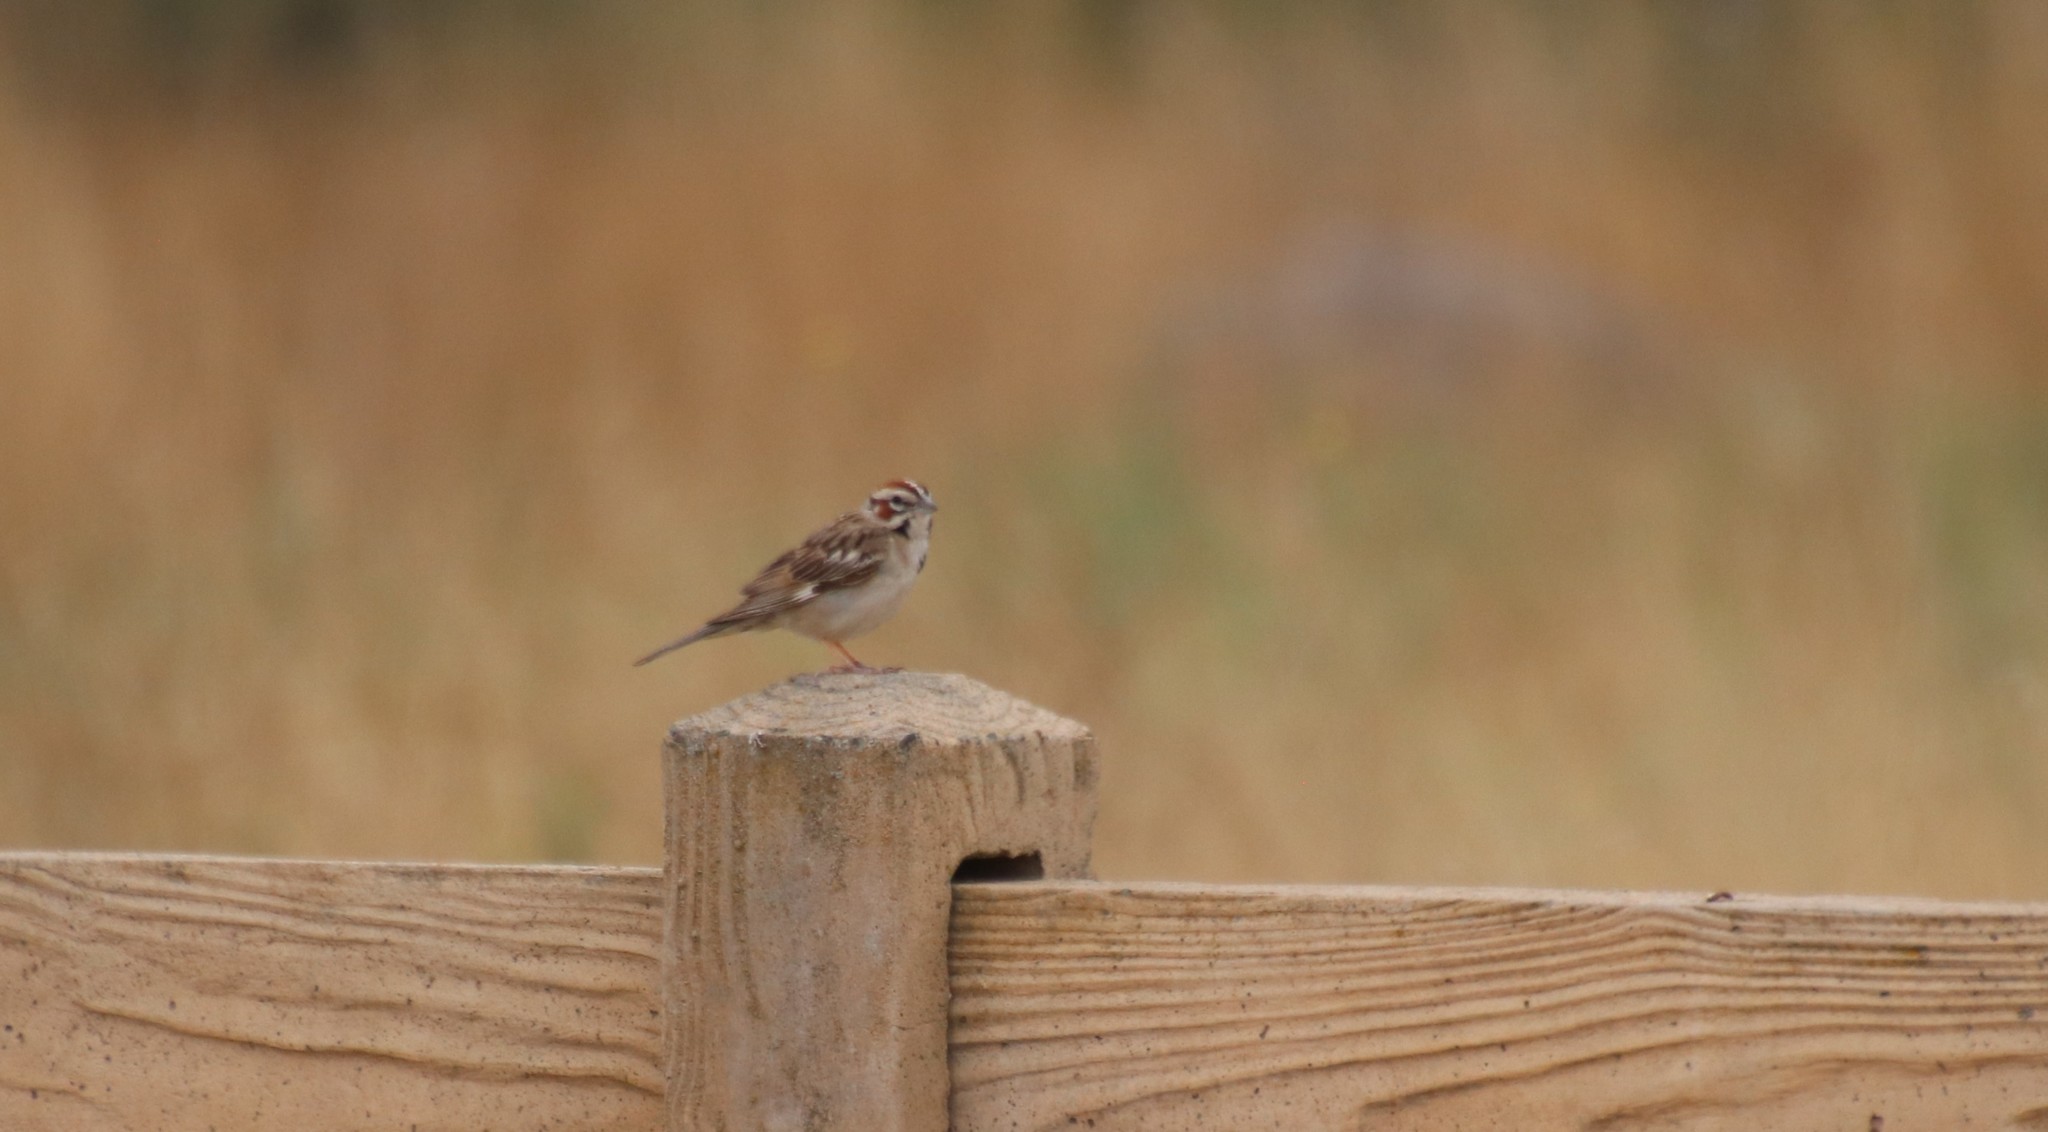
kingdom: Animalia
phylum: Chordata
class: Aves
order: Passeriformes
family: Passerellidae
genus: Chondestes
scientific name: Chondestes grammacus
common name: Lark sparrow
